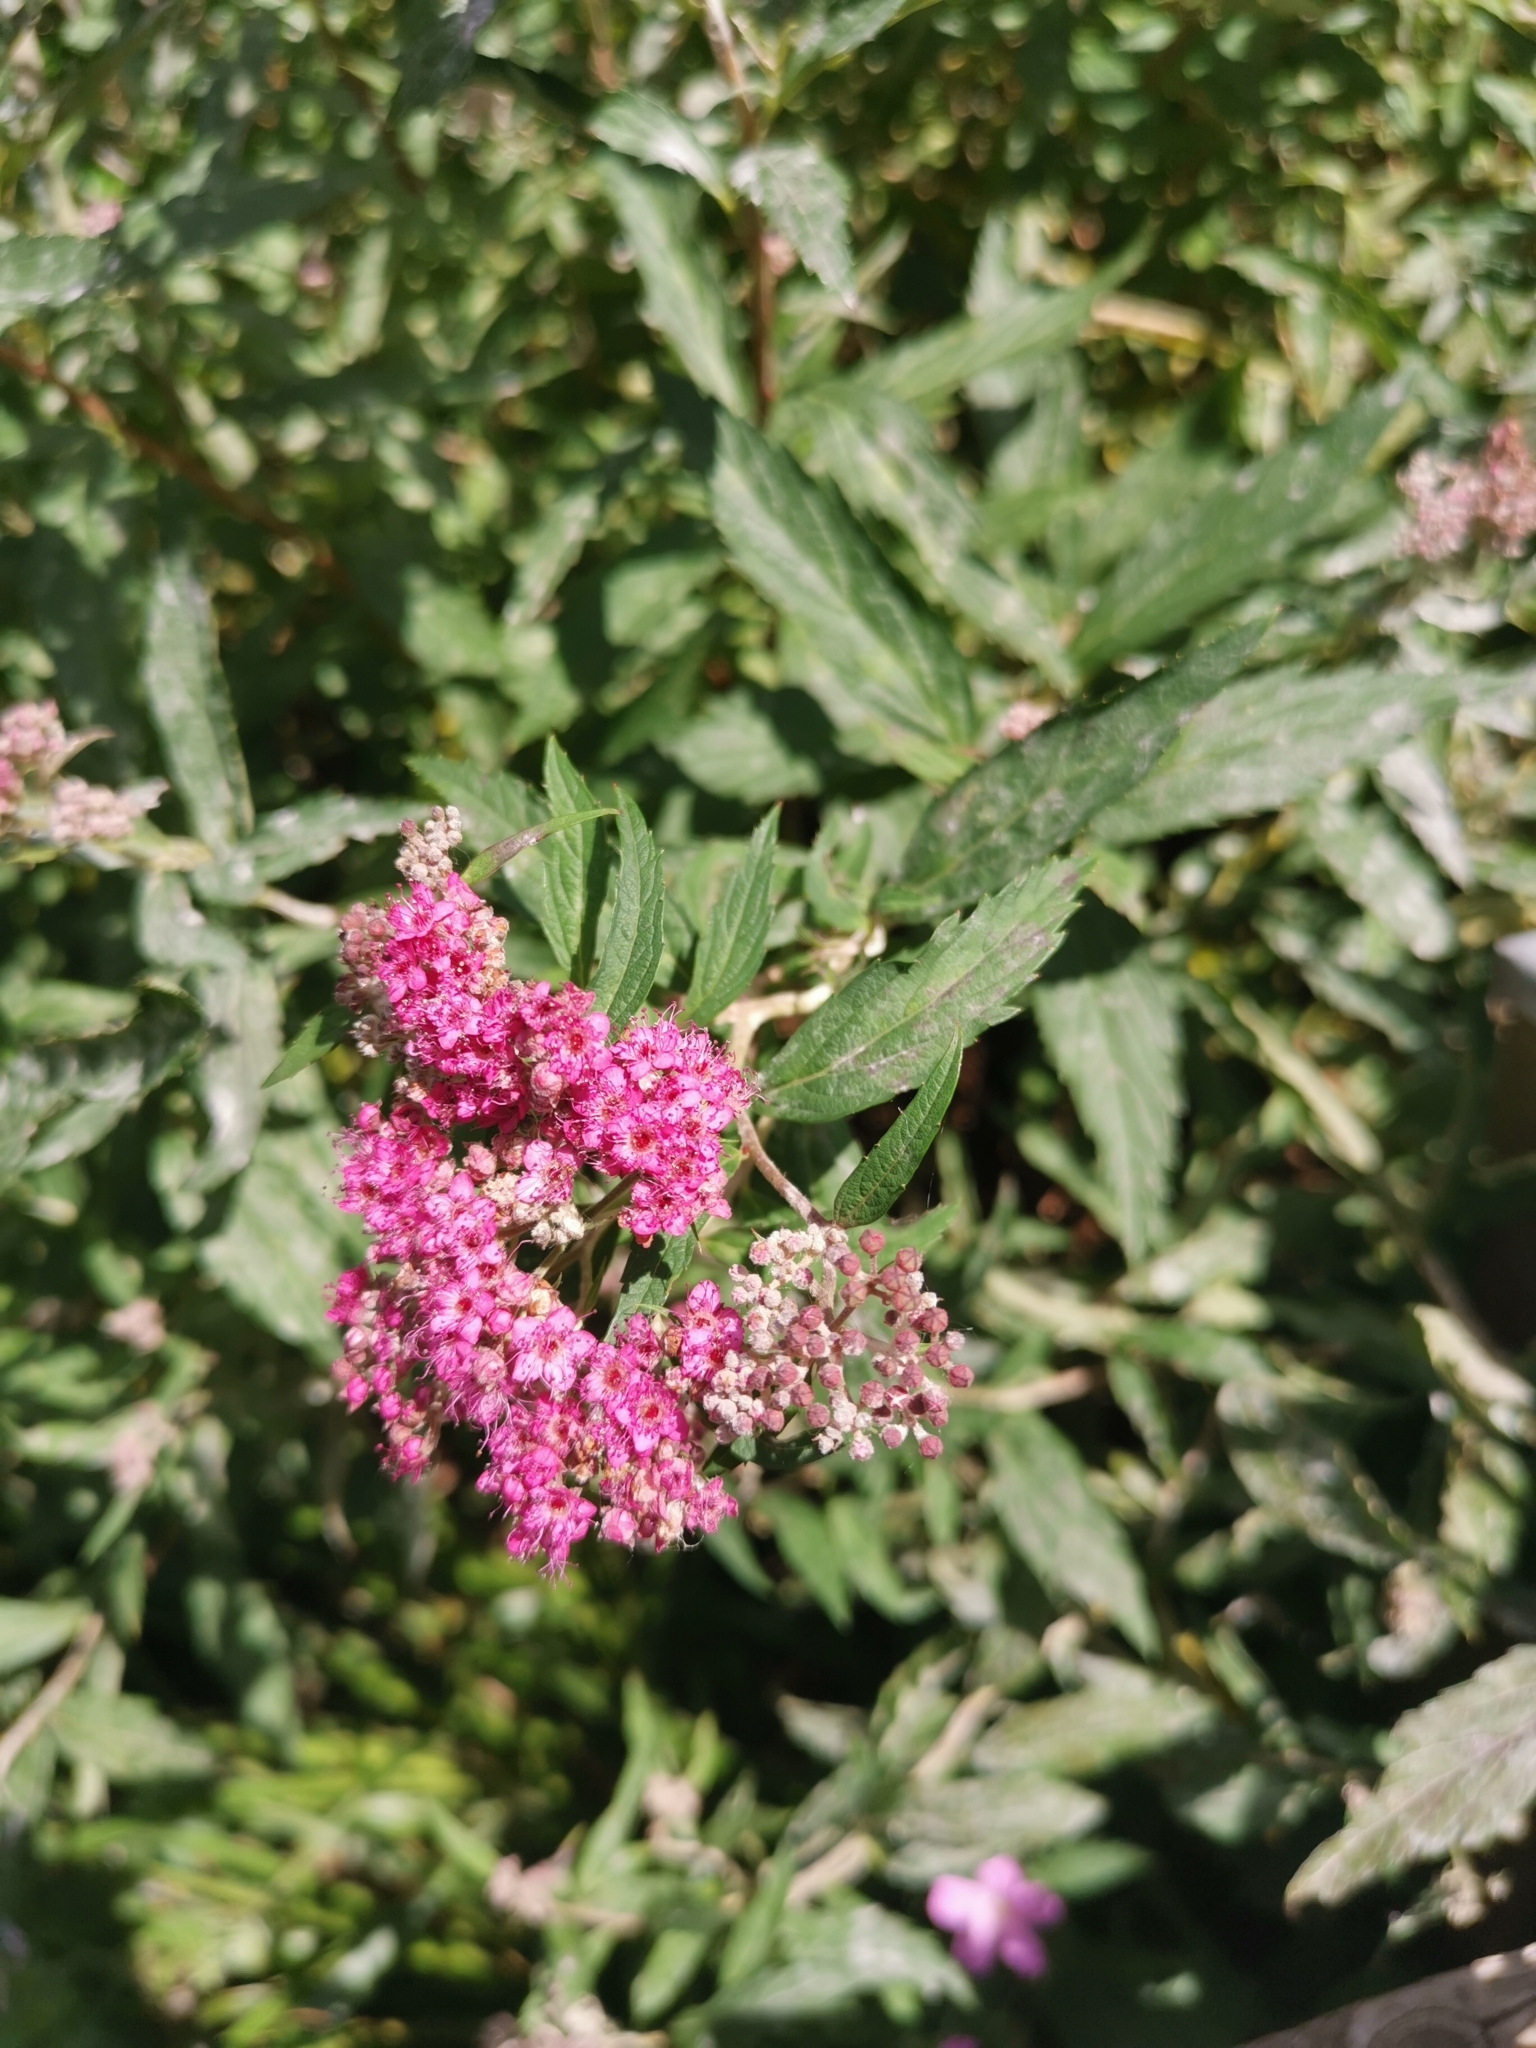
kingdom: Fungi
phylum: Ascomycota
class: Leotiomycetes
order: Helotiales
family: Erysiphaceae
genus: Podosphaera
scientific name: Podosphaera spiraeae
